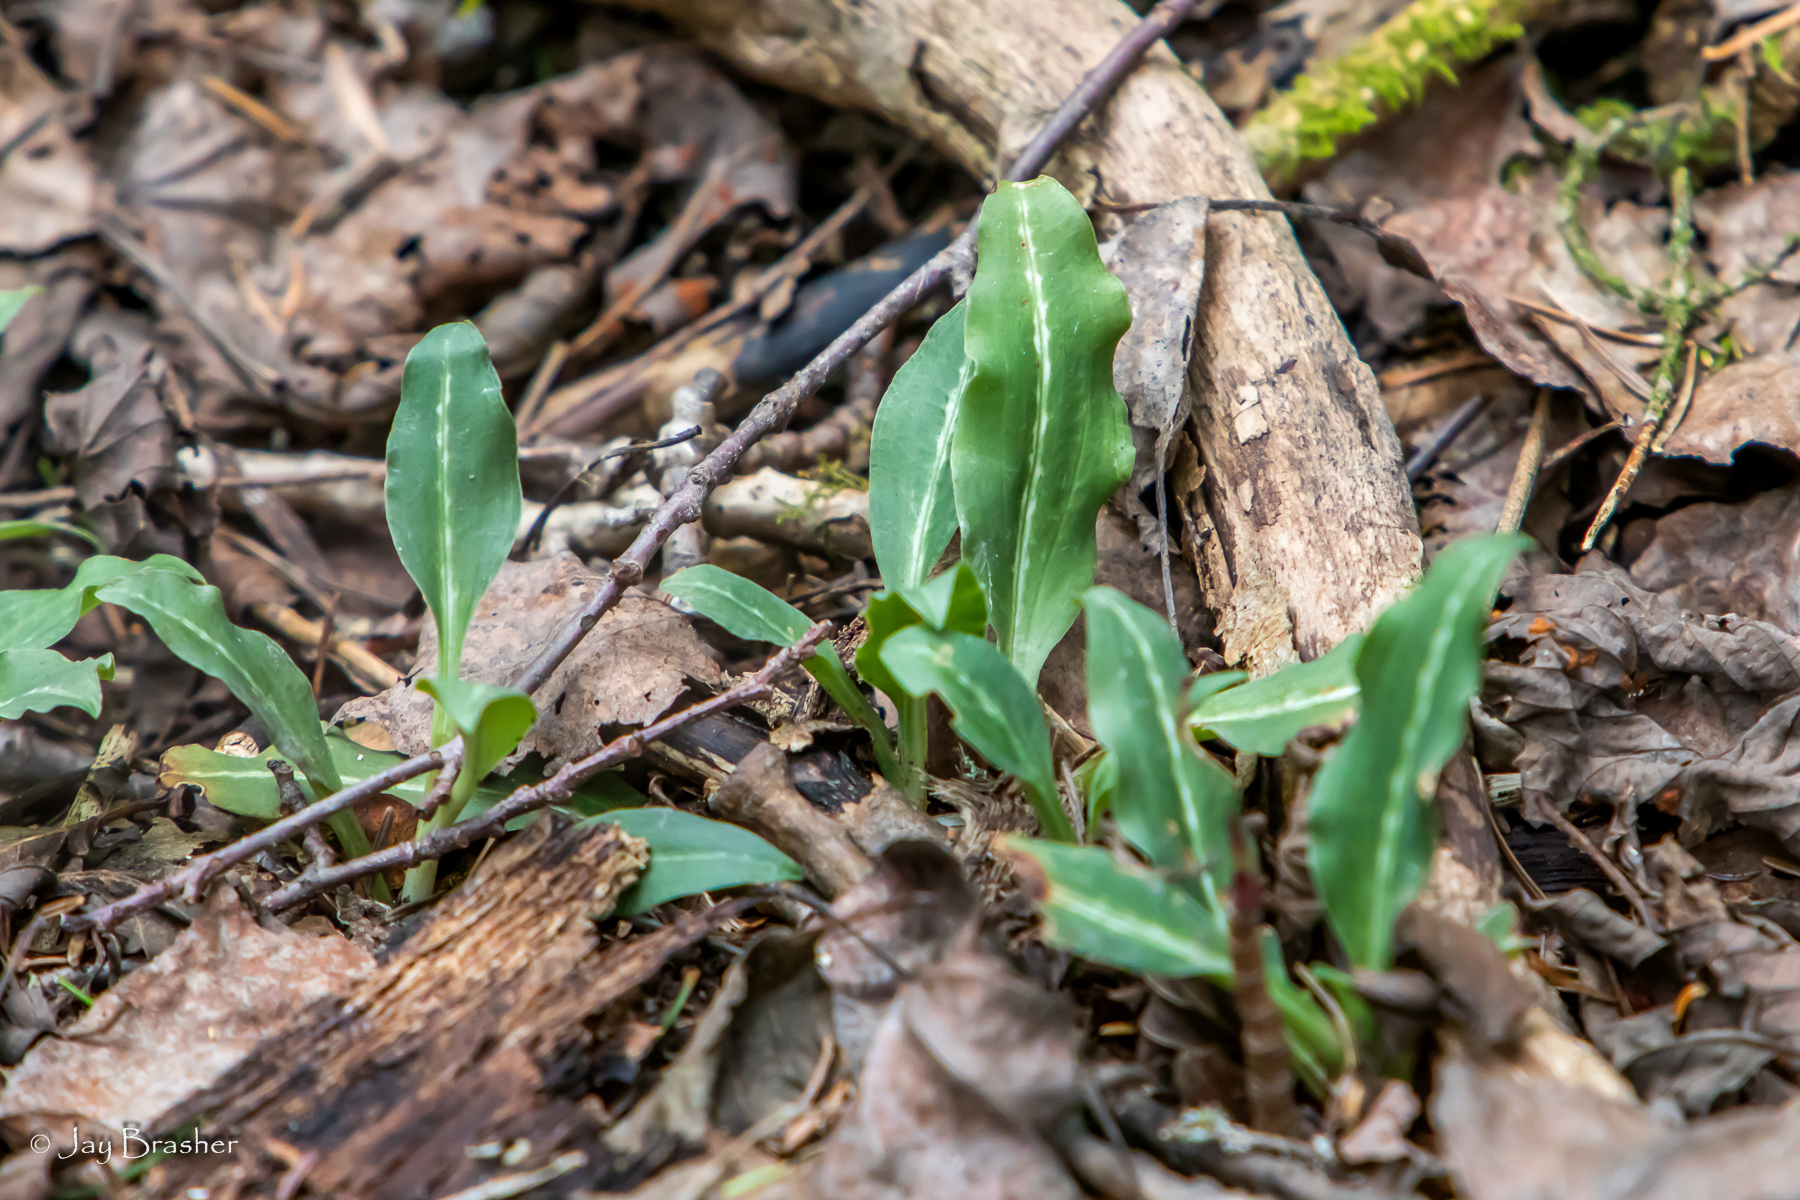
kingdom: Plantae
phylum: Tracheophyta
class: Liliopsida
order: Asparagales
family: Orchidaceae
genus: Goodyera
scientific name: Goodyera oblongifolia
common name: Giant rattlesnake-plantain
